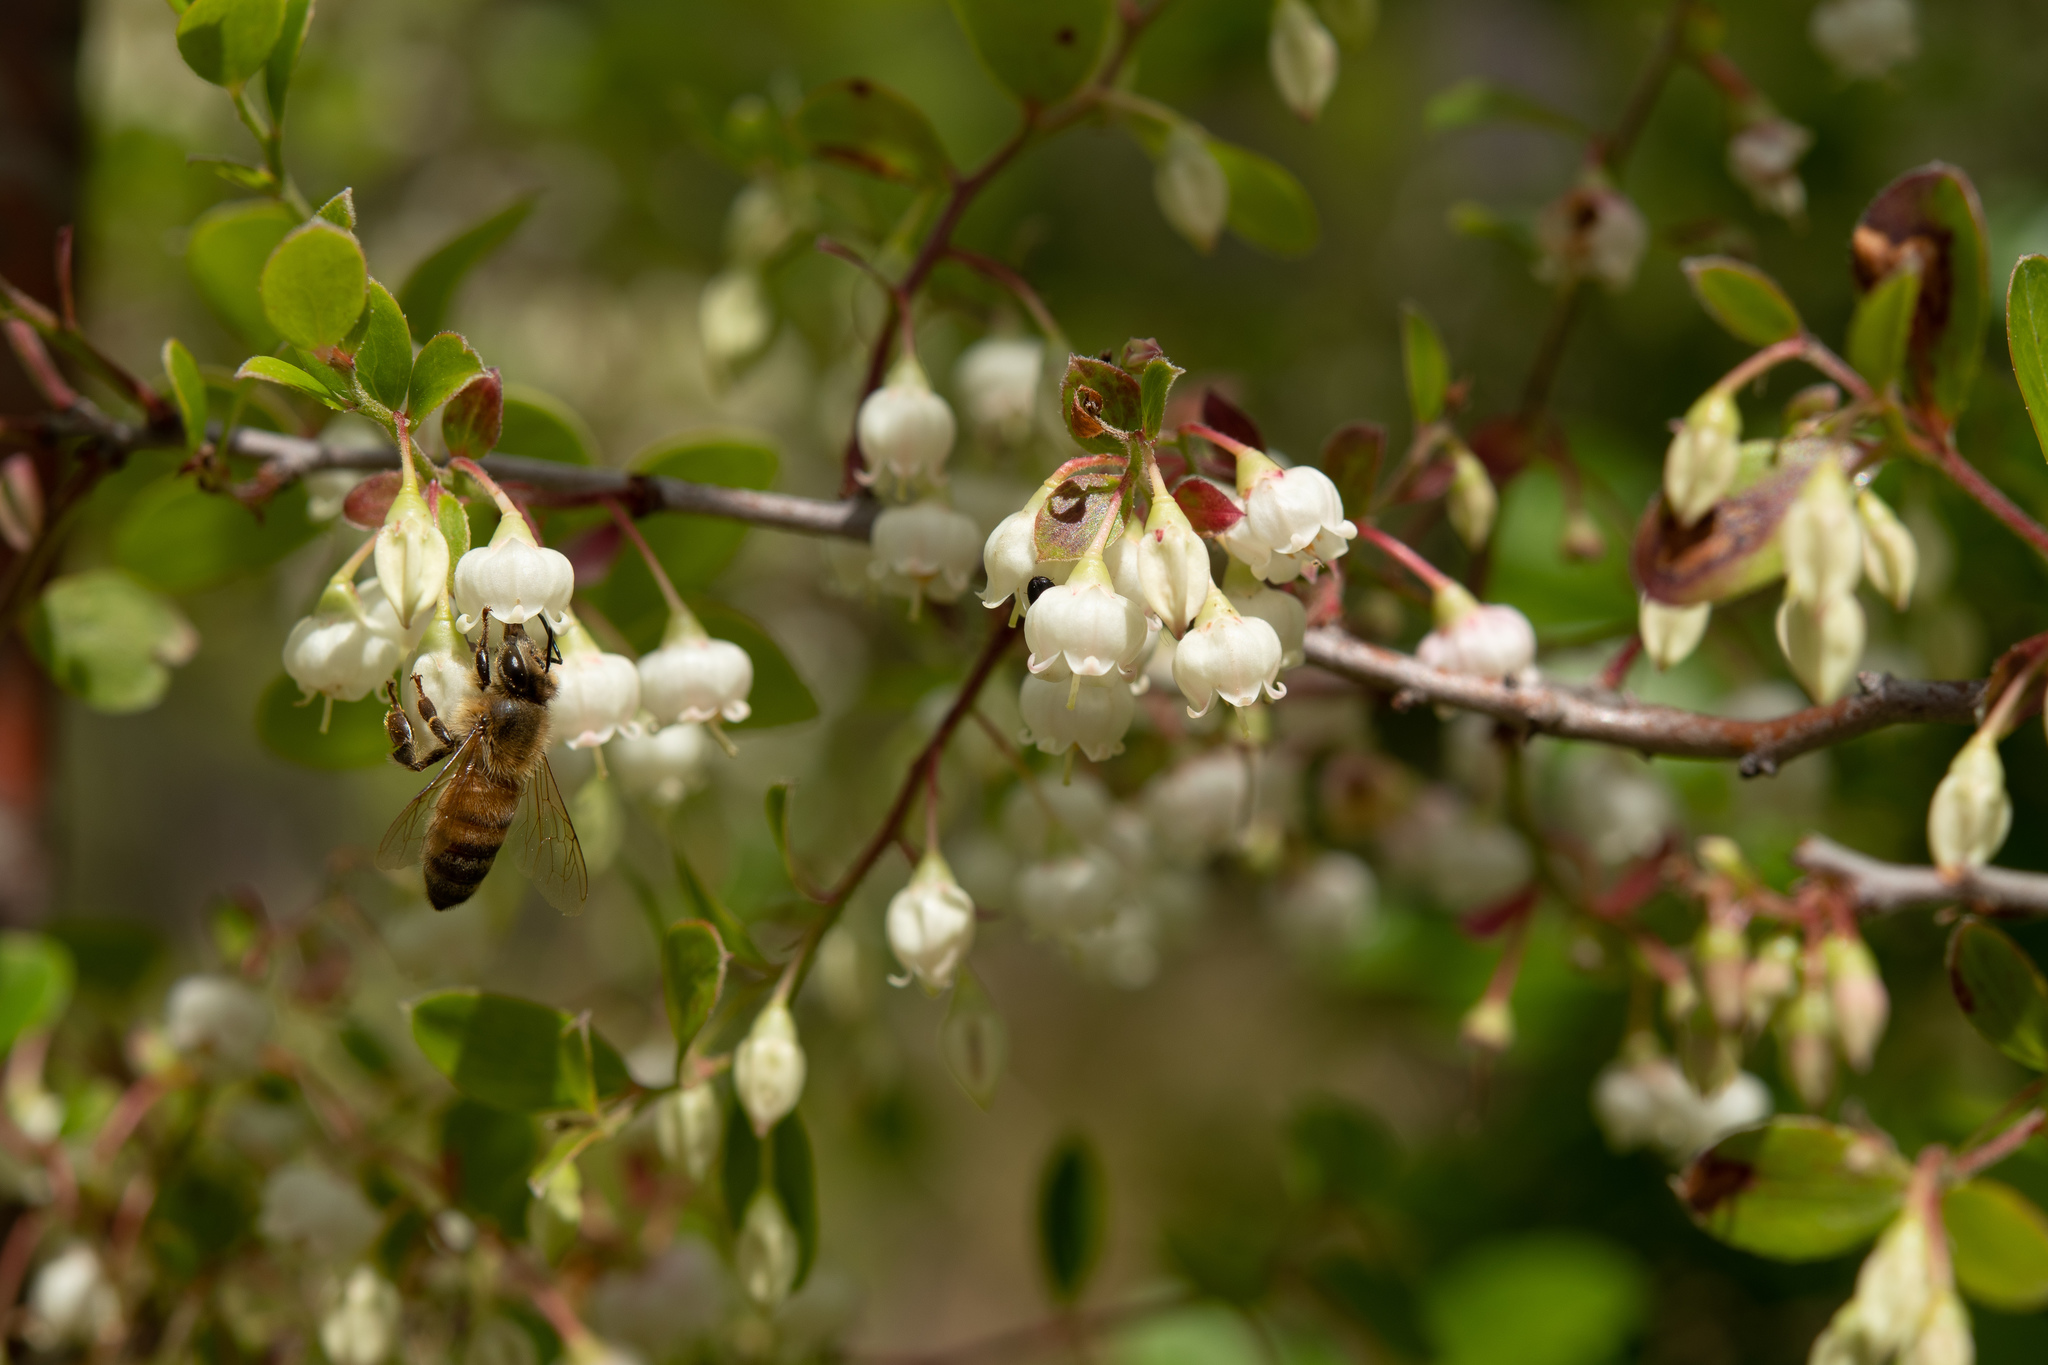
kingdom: Animalia
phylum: Arthropoda
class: Insecta
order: Hymenoptera
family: Apidae
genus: Apis
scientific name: Apis mellifera
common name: Honey bee
